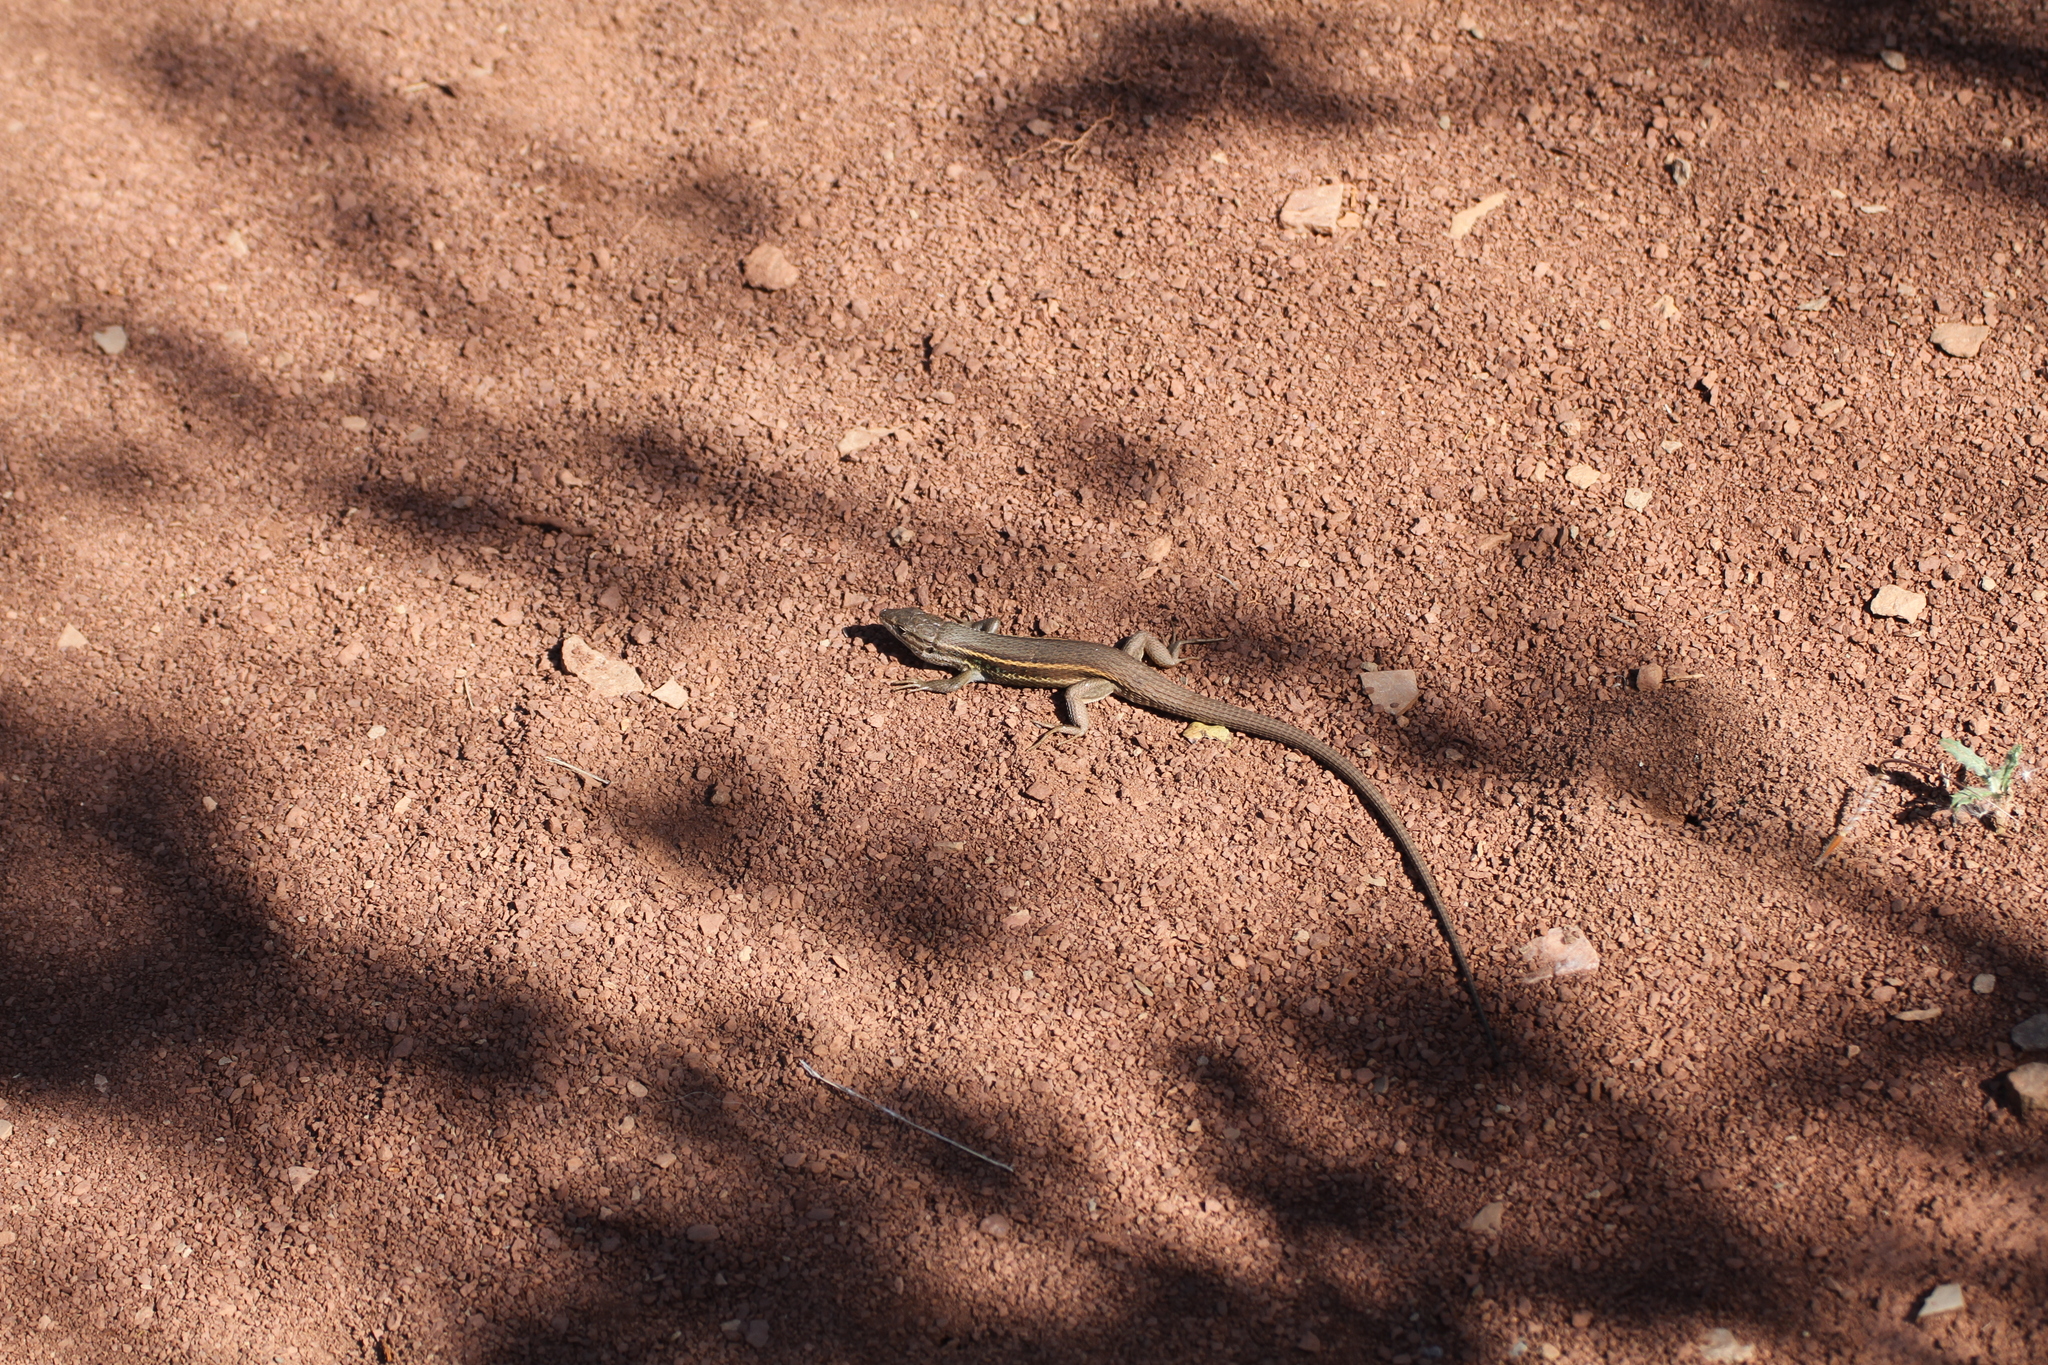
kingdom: Animalia
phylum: Chordata
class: Squamata
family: Lacertidae
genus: Psammodromus
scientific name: Psammodromus algirus
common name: Algerian psammodromus
